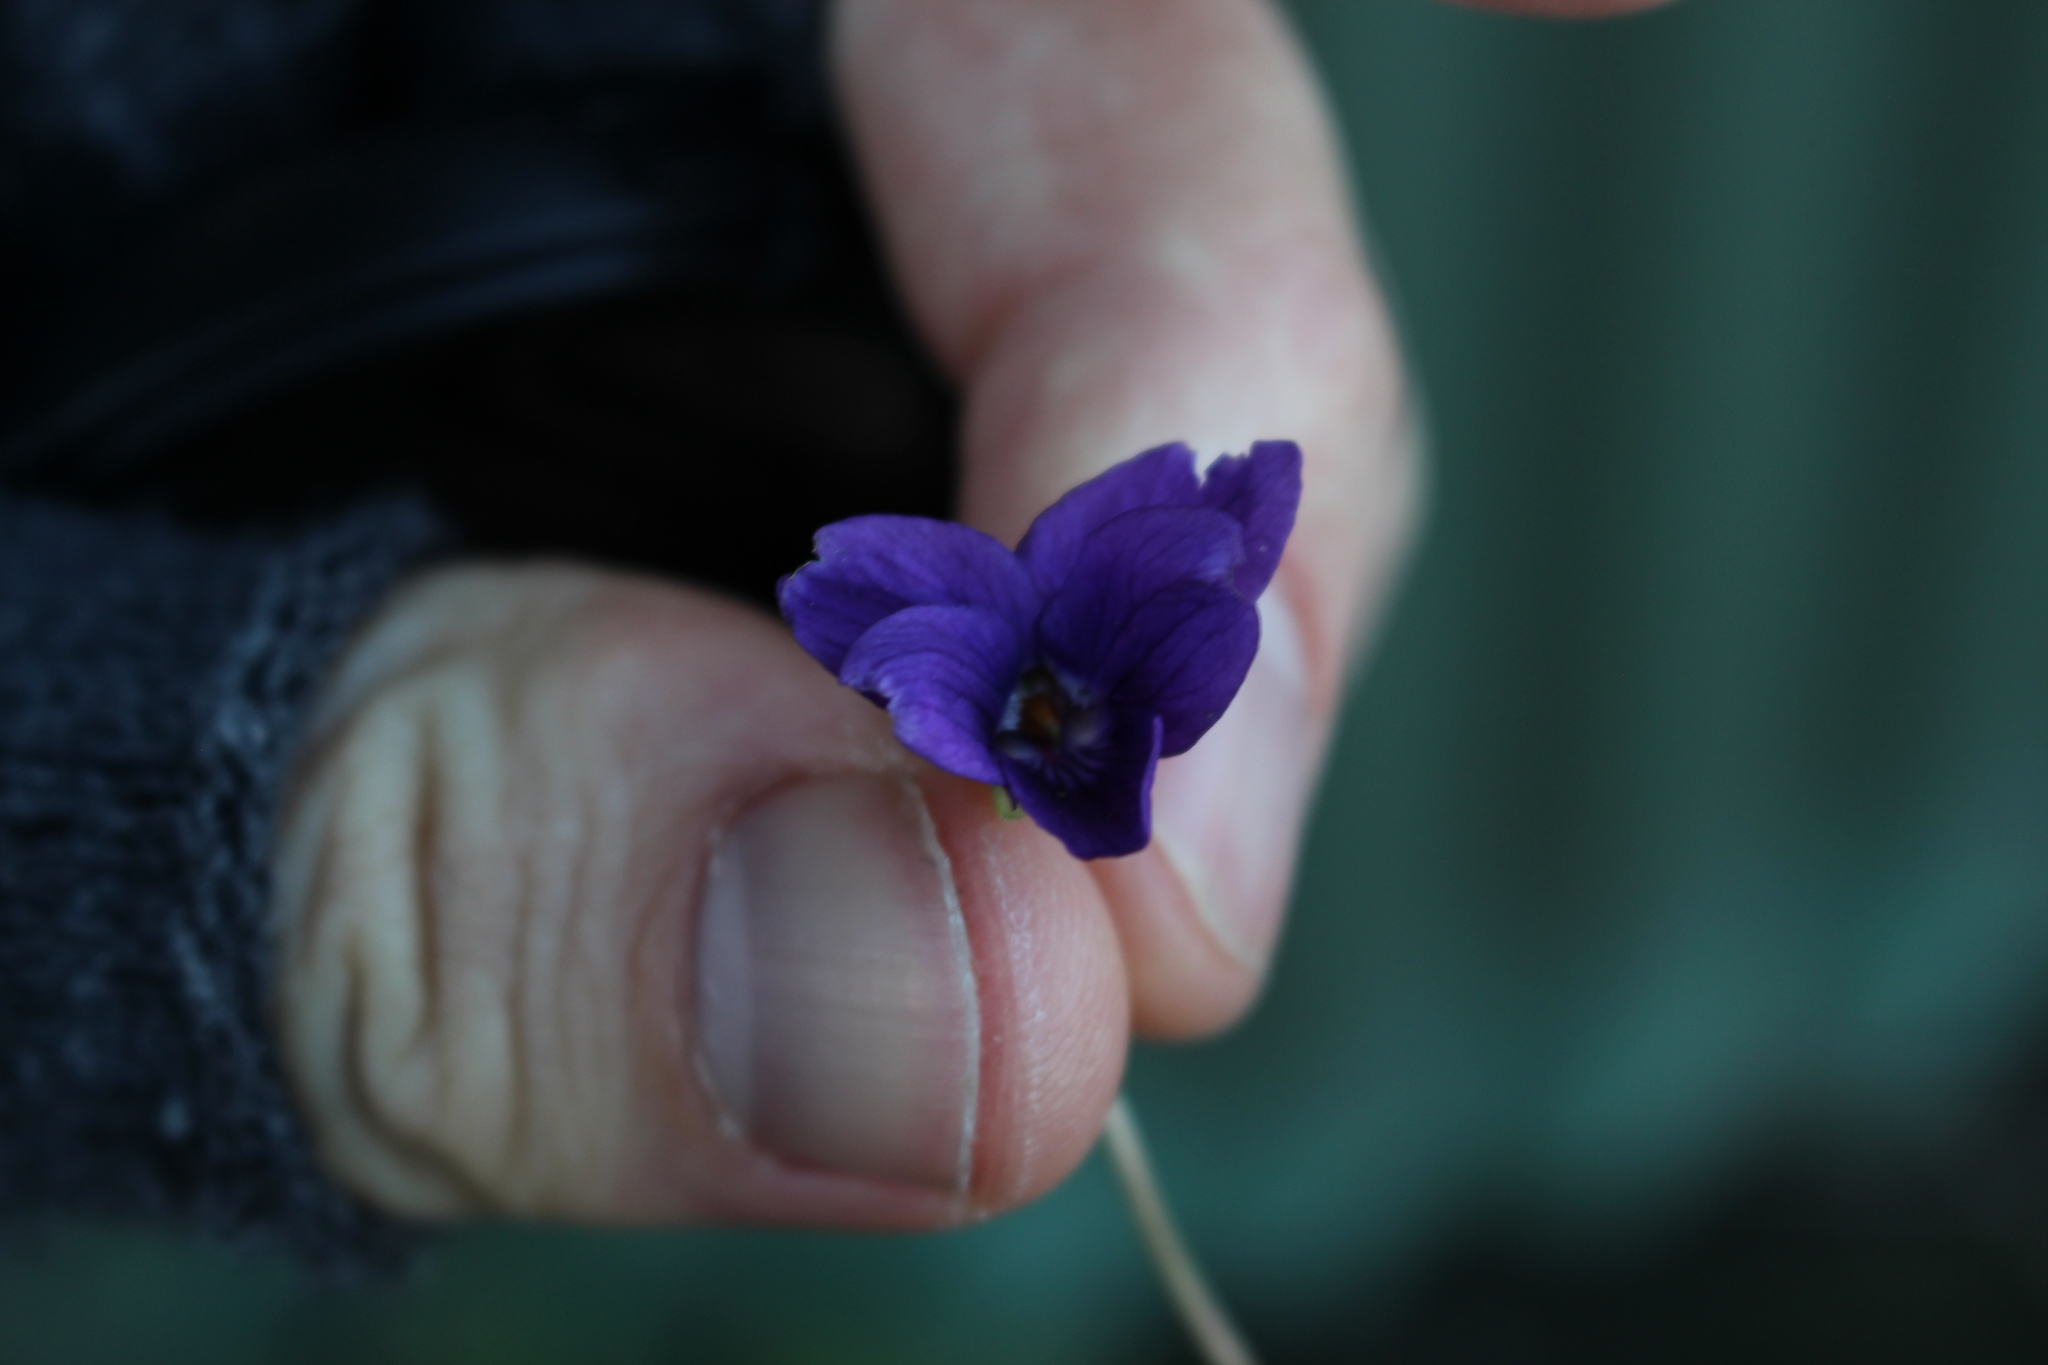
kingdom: Plantae
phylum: Tracheophyta
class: Magnoliopsida
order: Malpighiales
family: Violaceae
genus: Viola
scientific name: Viola odorata
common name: Sweet violet
